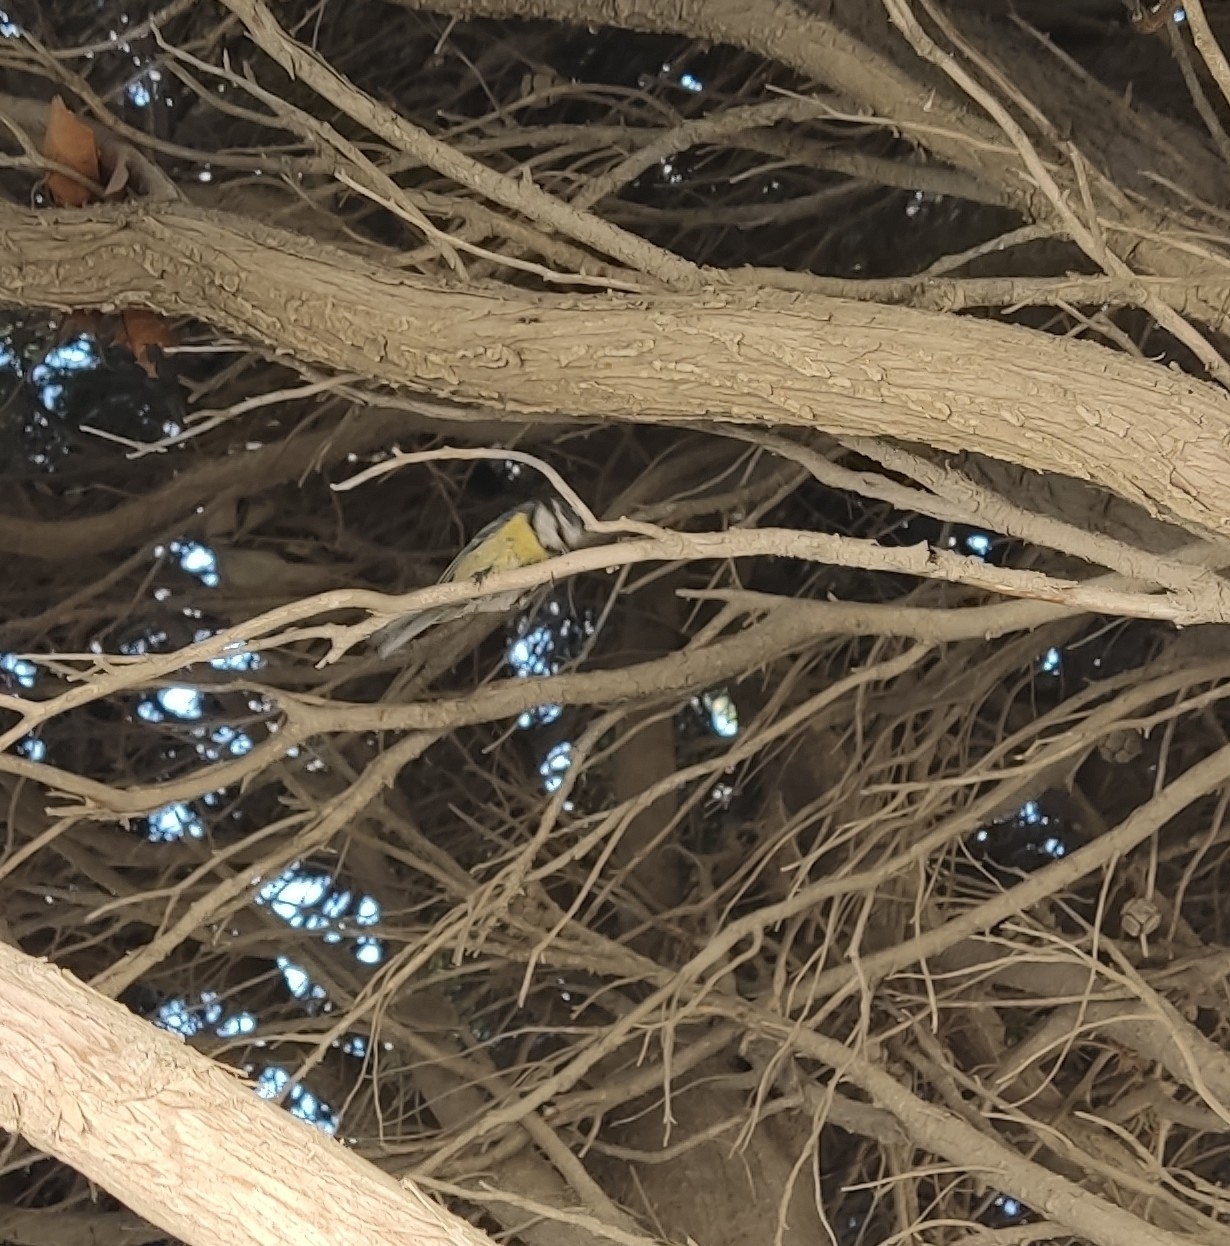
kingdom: Animalia
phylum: Chordata
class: Aves
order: Passeriformes
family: Paridae
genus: Cyanistes
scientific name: Cyanistes caeruleus
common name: Eurasian blue tit
